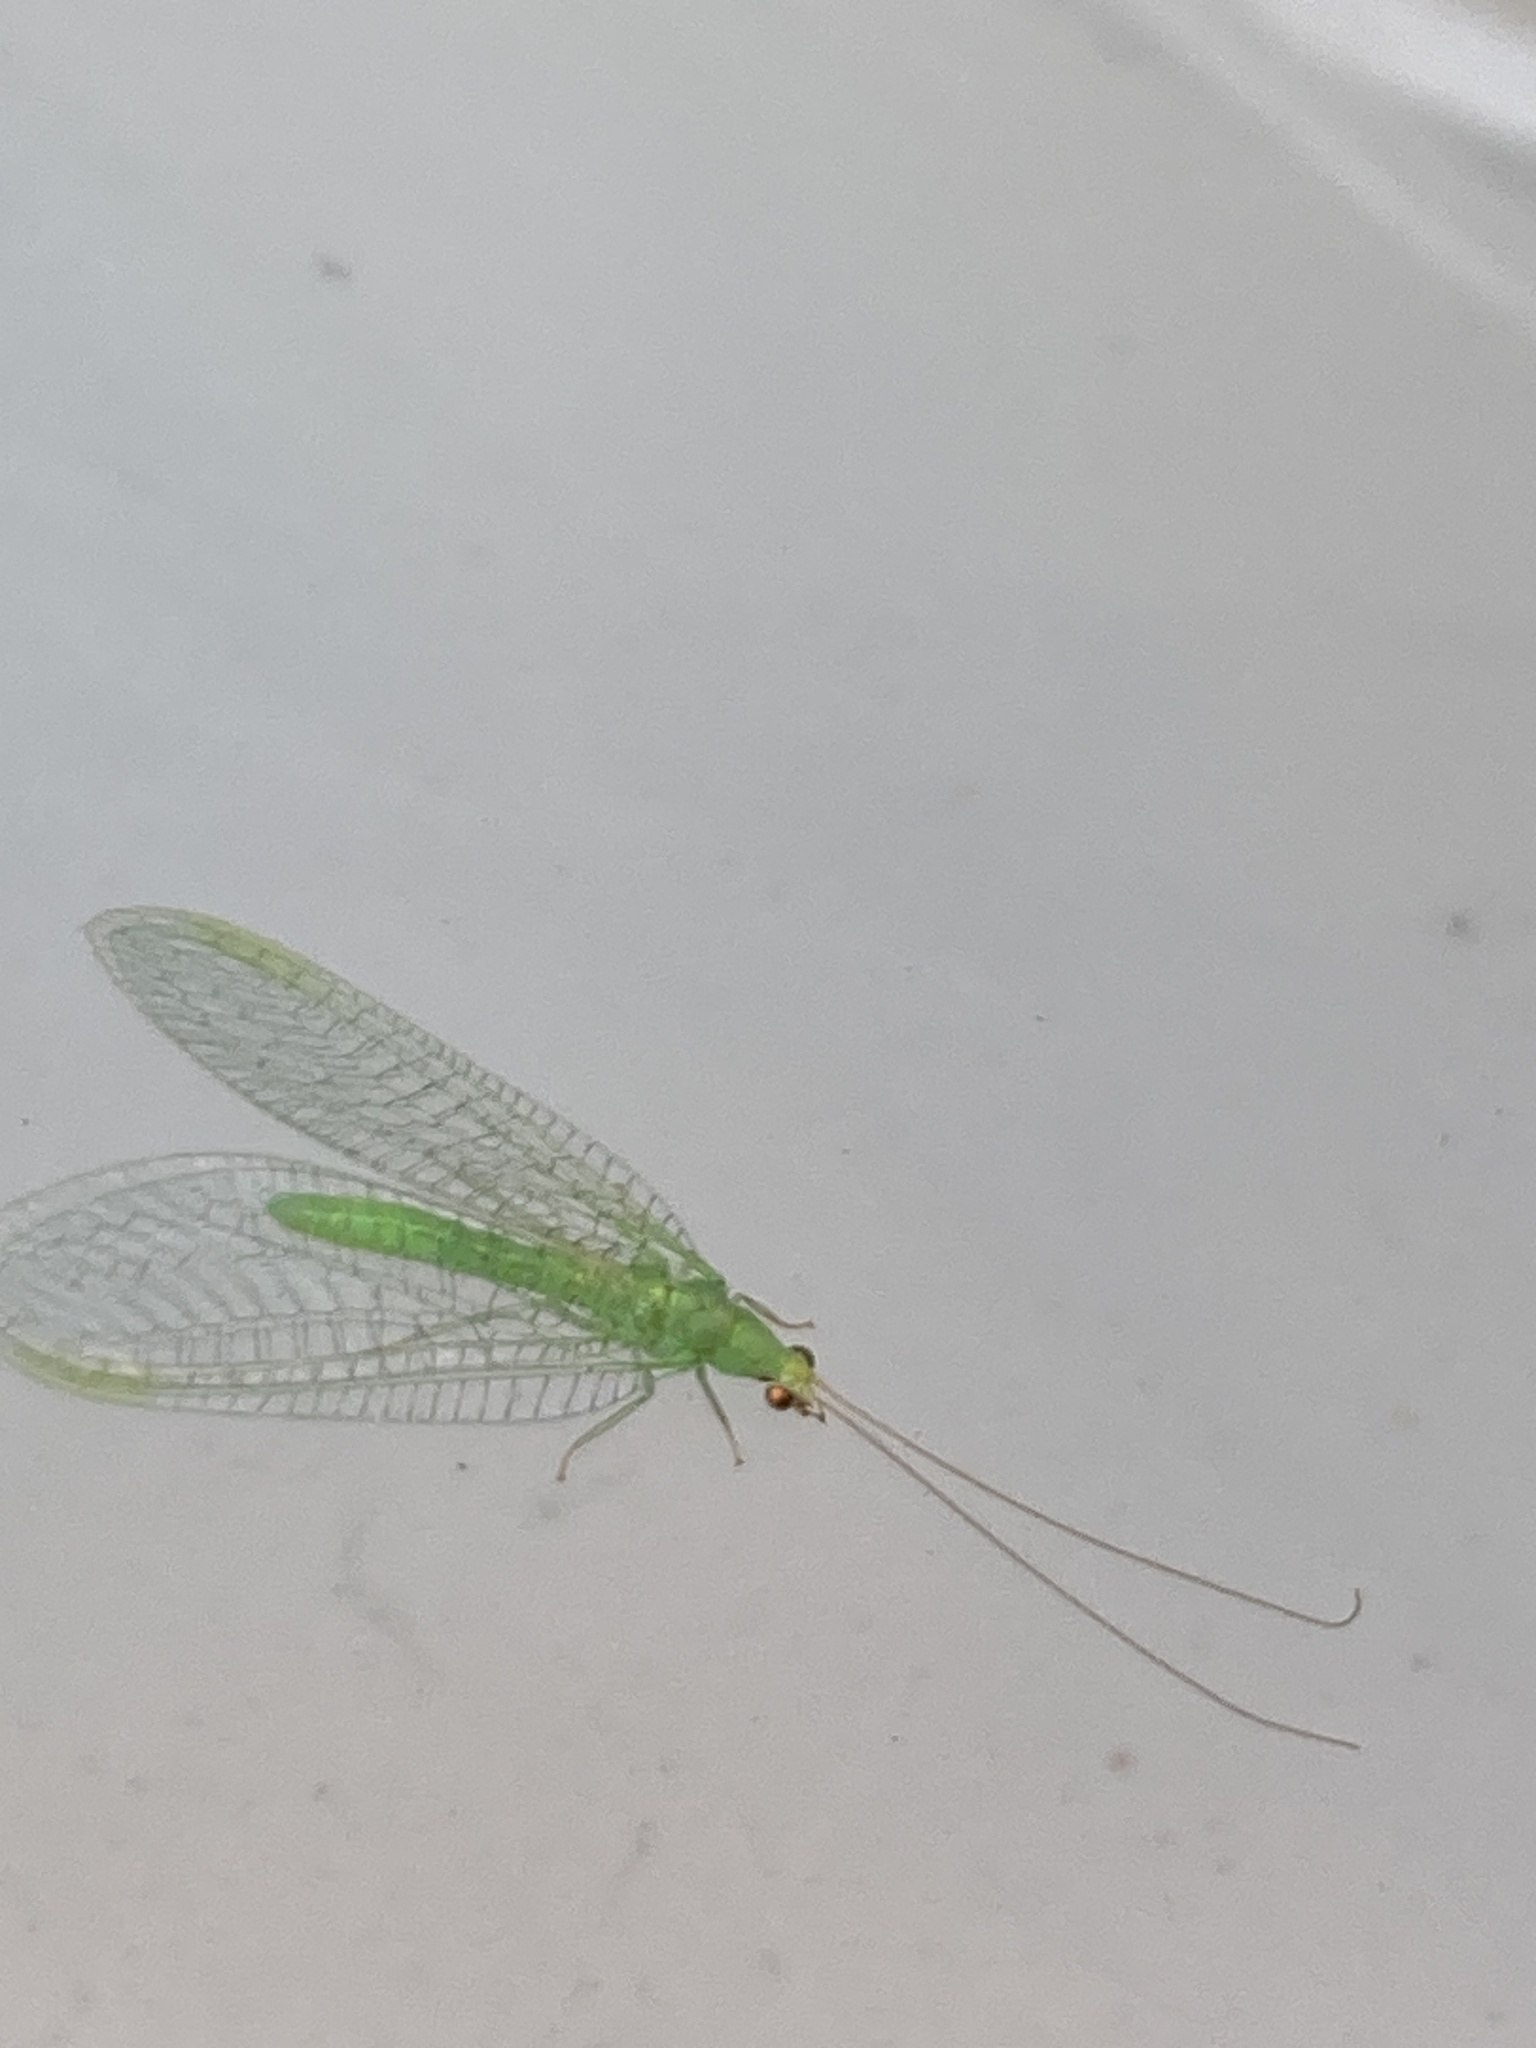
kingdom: Animalia
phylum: Arthropoda
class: Insecta
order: Neuroptera
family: Chrysopidae
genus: Pseudomallada
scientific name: Pseudomallada flavifrons
